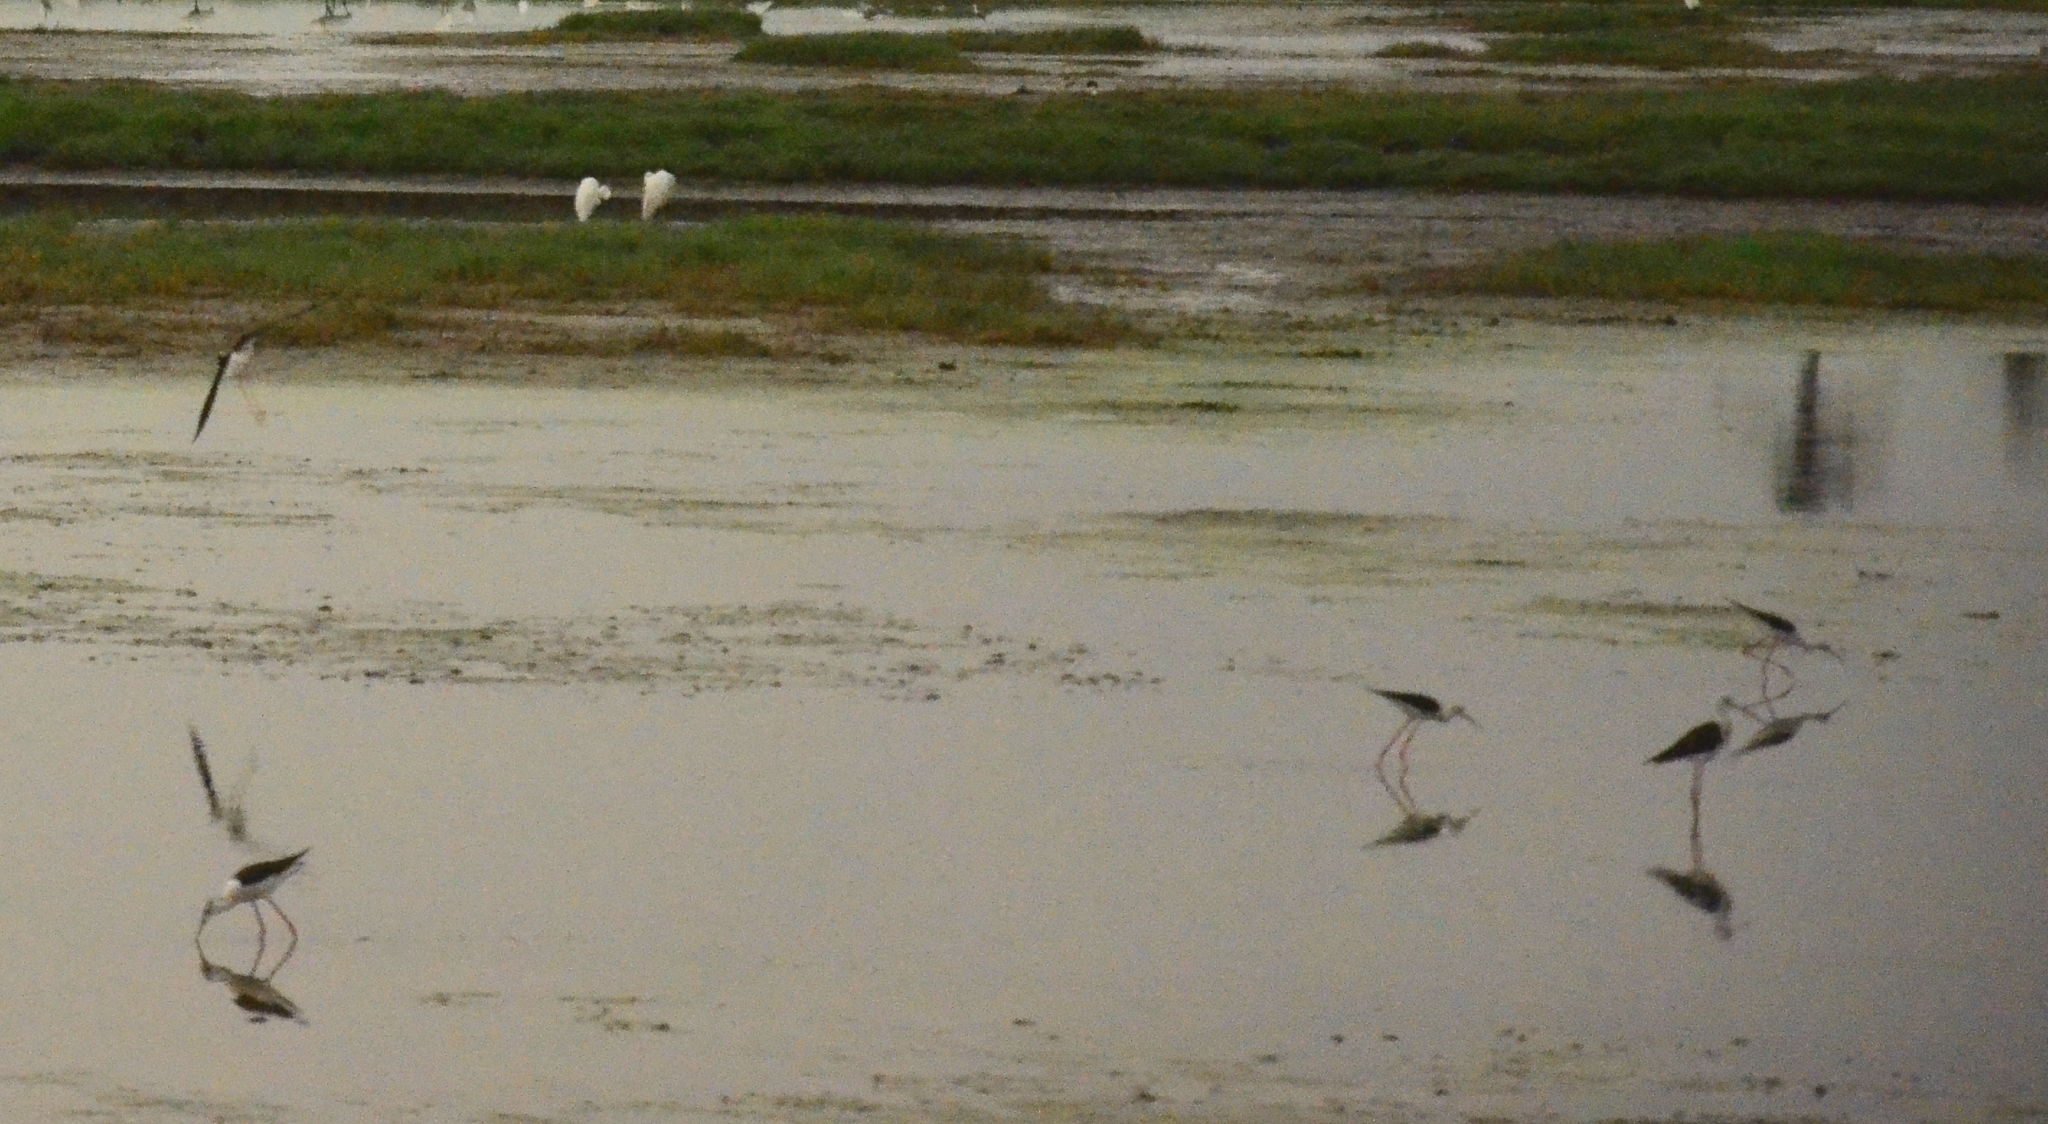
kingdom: Animalia
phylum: Chordata
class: Aves
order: Charadriiformes
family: Recurvirostridae
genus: Himantopus
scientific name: Himantopus himantopus
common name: Black-winged stilt
